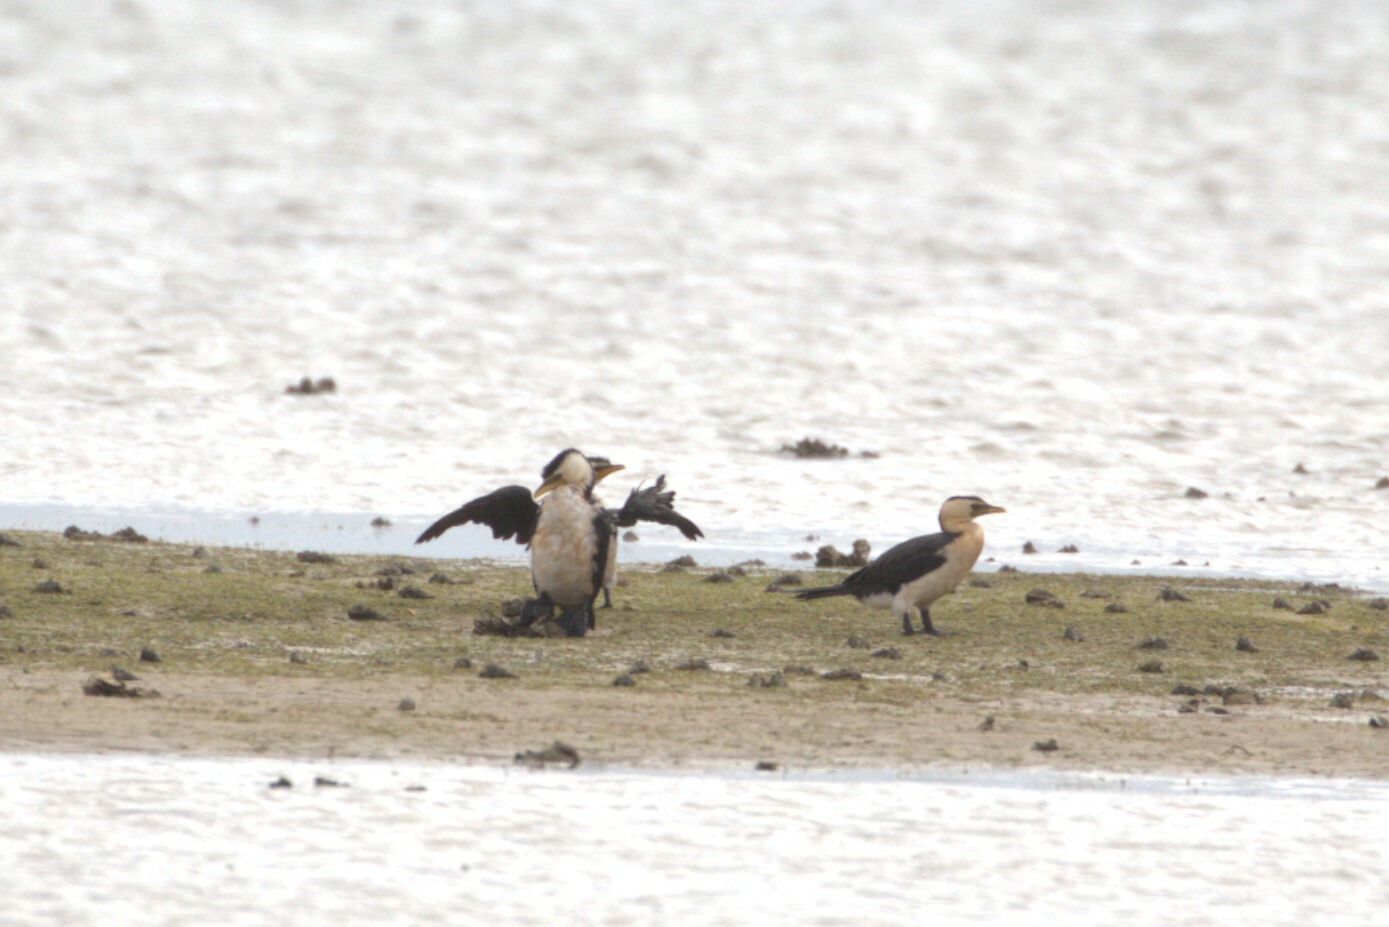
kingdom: Animalia
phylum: Chordata
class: Aves
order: Suliformes
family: Phalacrocoracidae
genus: Microcarbo
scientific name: Microcarbo melanoleucos
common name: Little pied cormorant
